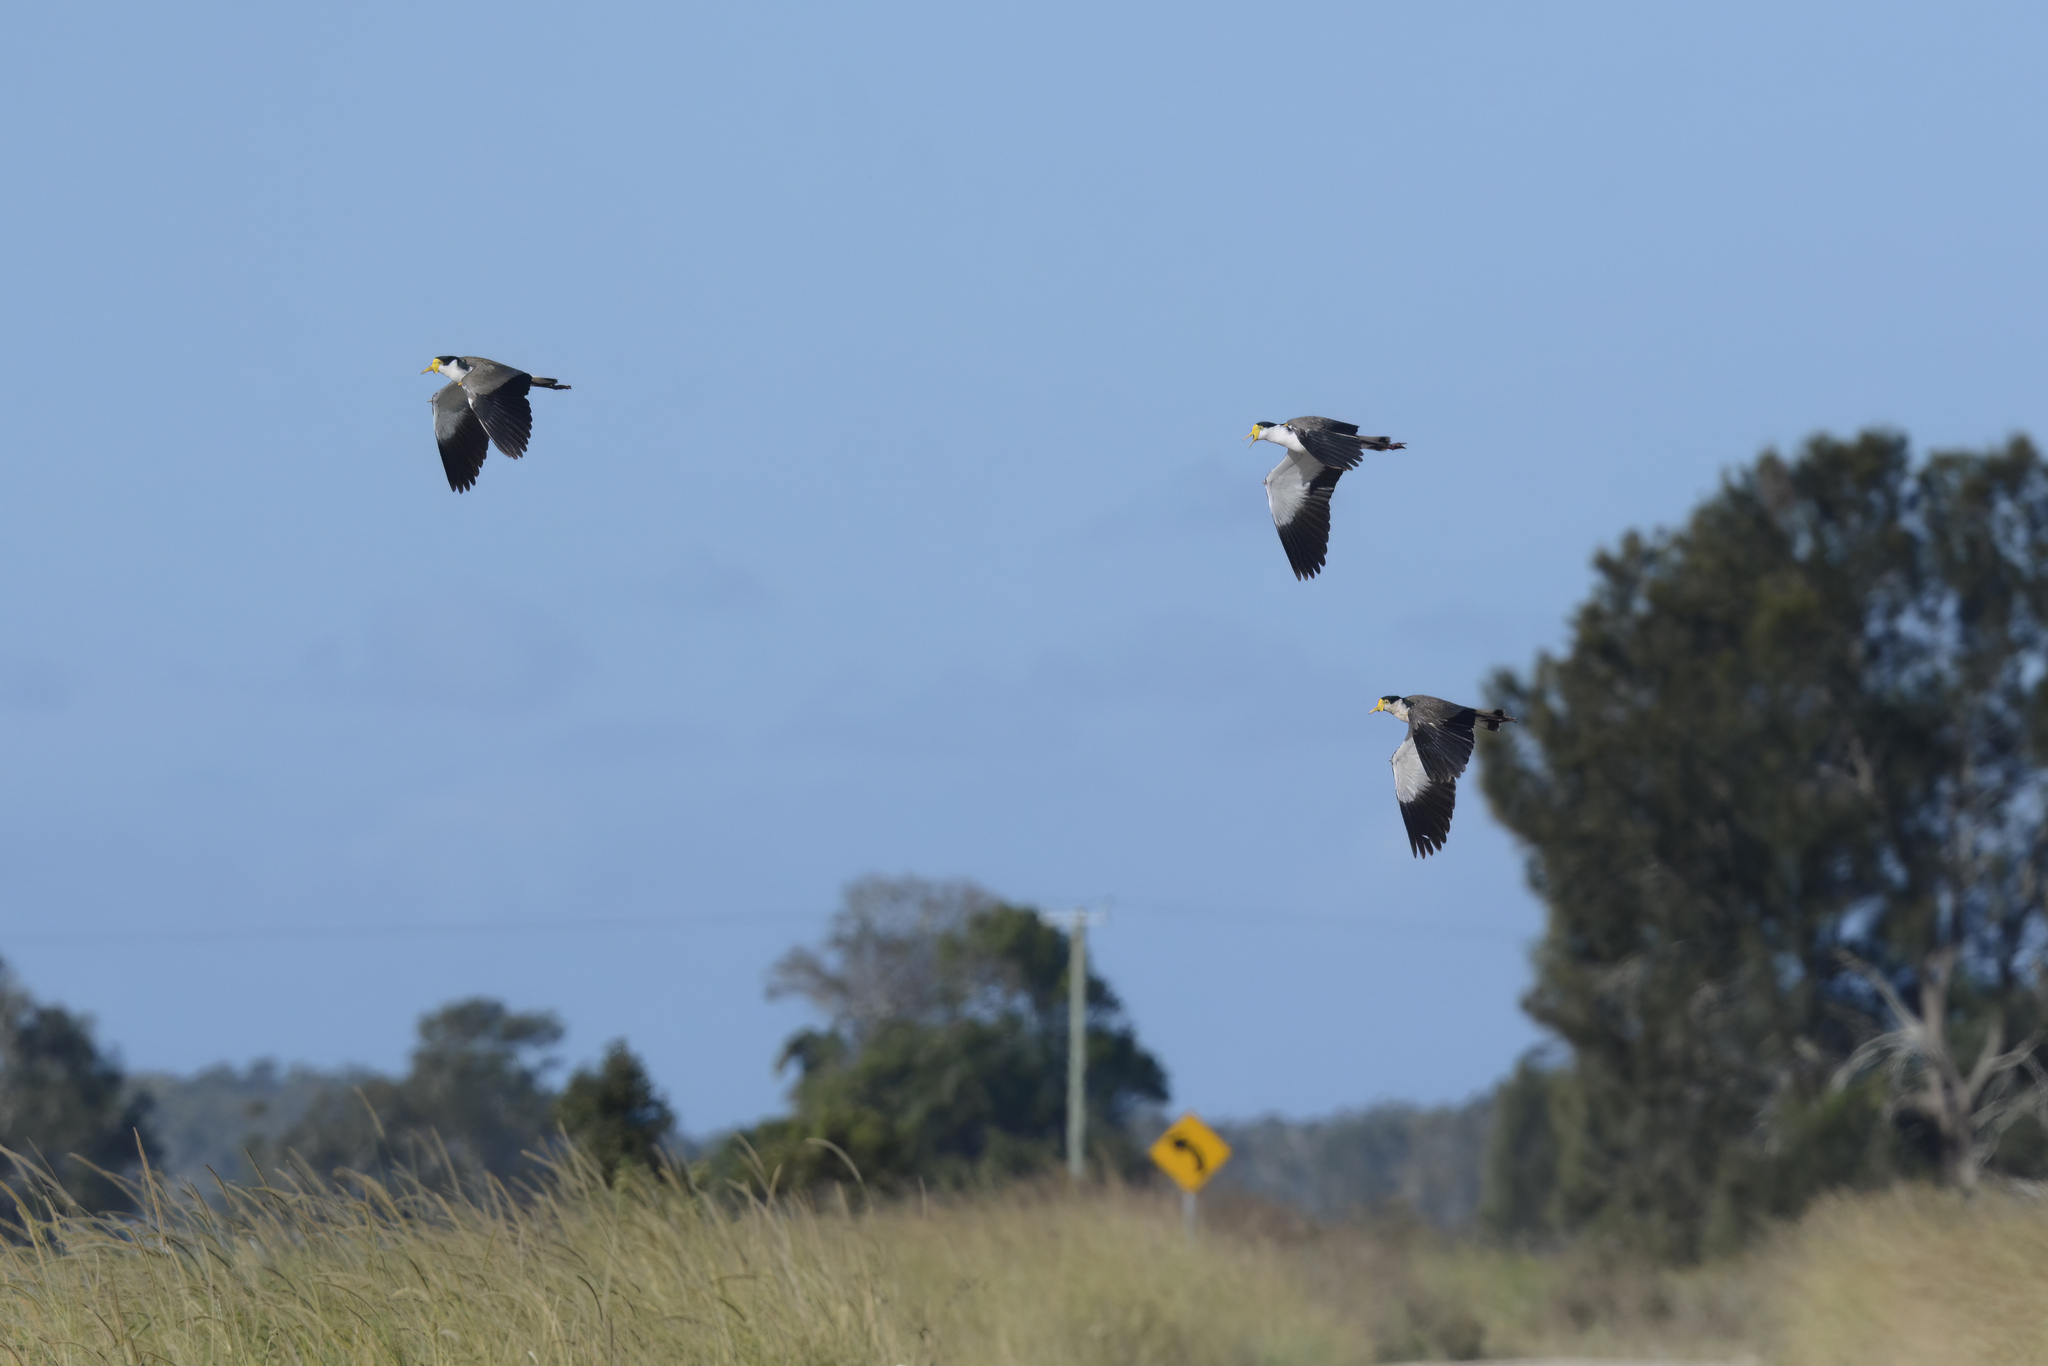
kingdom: Animalia
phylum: Chordata
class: Aves
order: Charadriiformes
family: Charadriidae
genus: Vanellus
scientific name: Vanellus miles
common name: Masked lapwing
